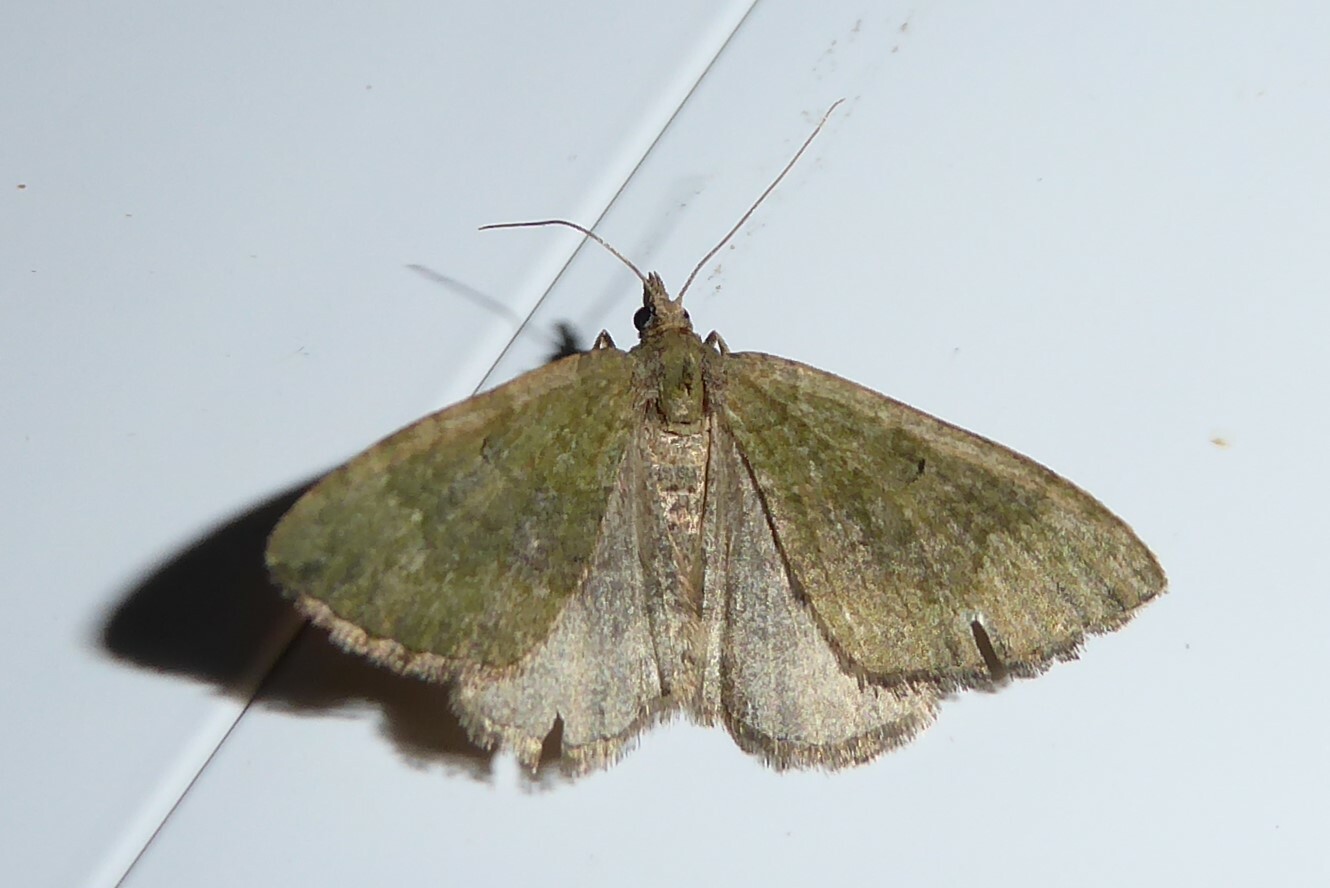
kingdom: Animalia
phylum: Arthropoda
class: Insecta
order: Lepidoptera
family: Geometridae
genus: Epyaxa
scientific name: Epyaxa rosearia
